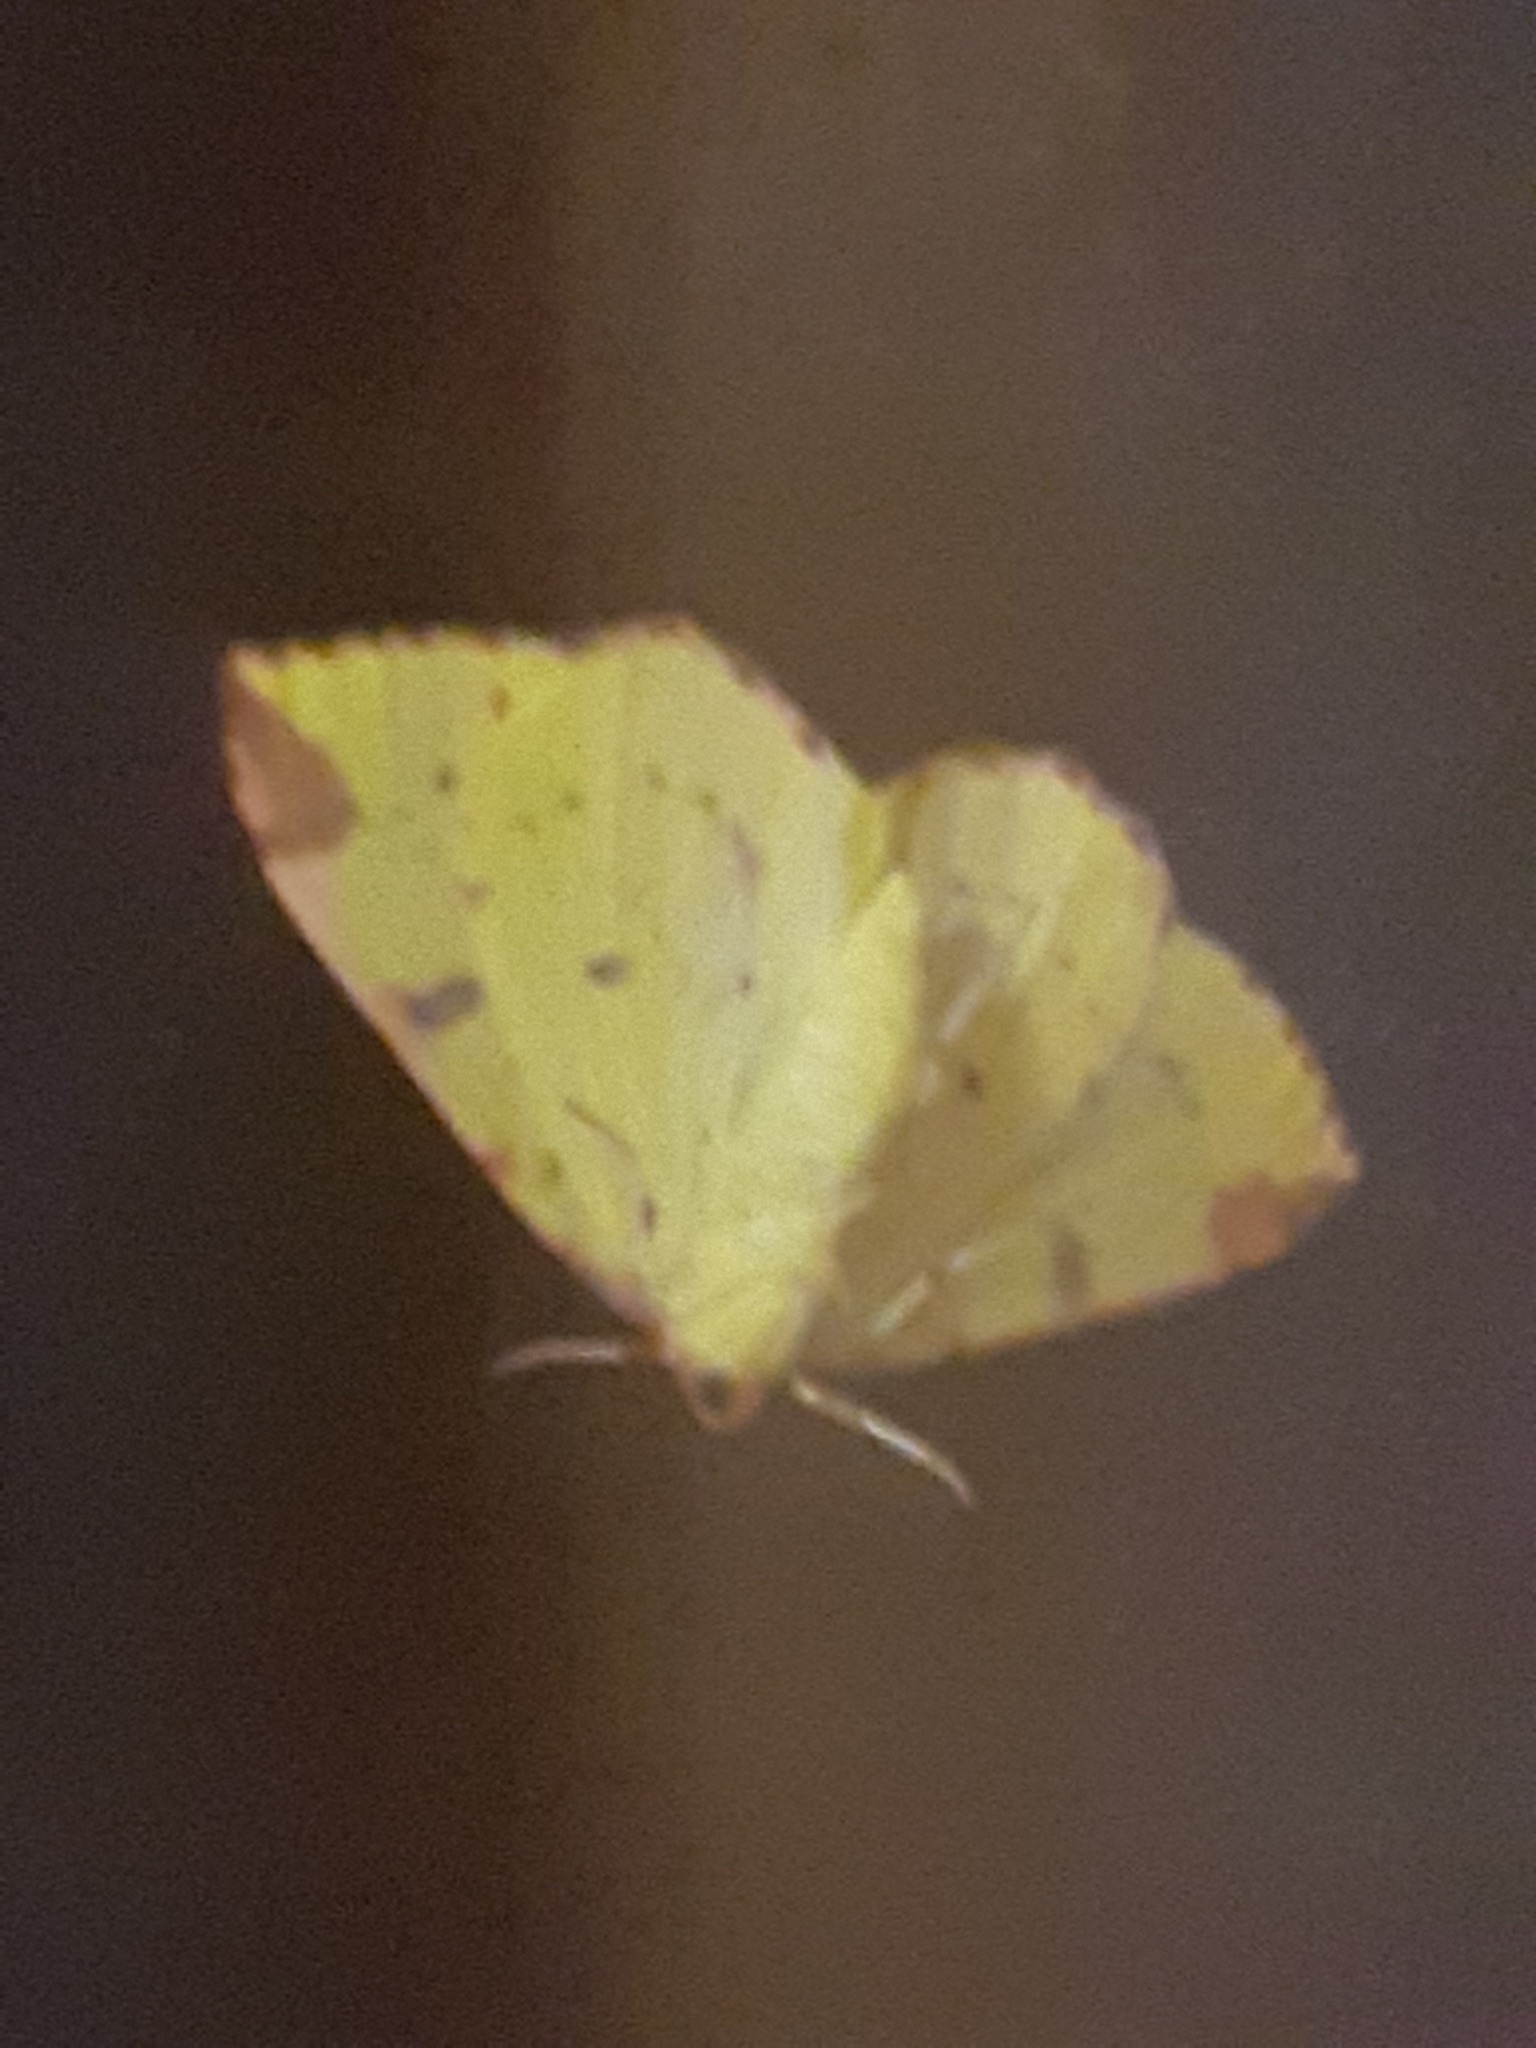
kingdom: Animalia
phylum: Arthropoda
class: Insecta
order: Lepidoptera
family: Geometridae
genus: Opisthograptis
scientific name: Opisthograptis luteolata
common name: Brimstone moth
